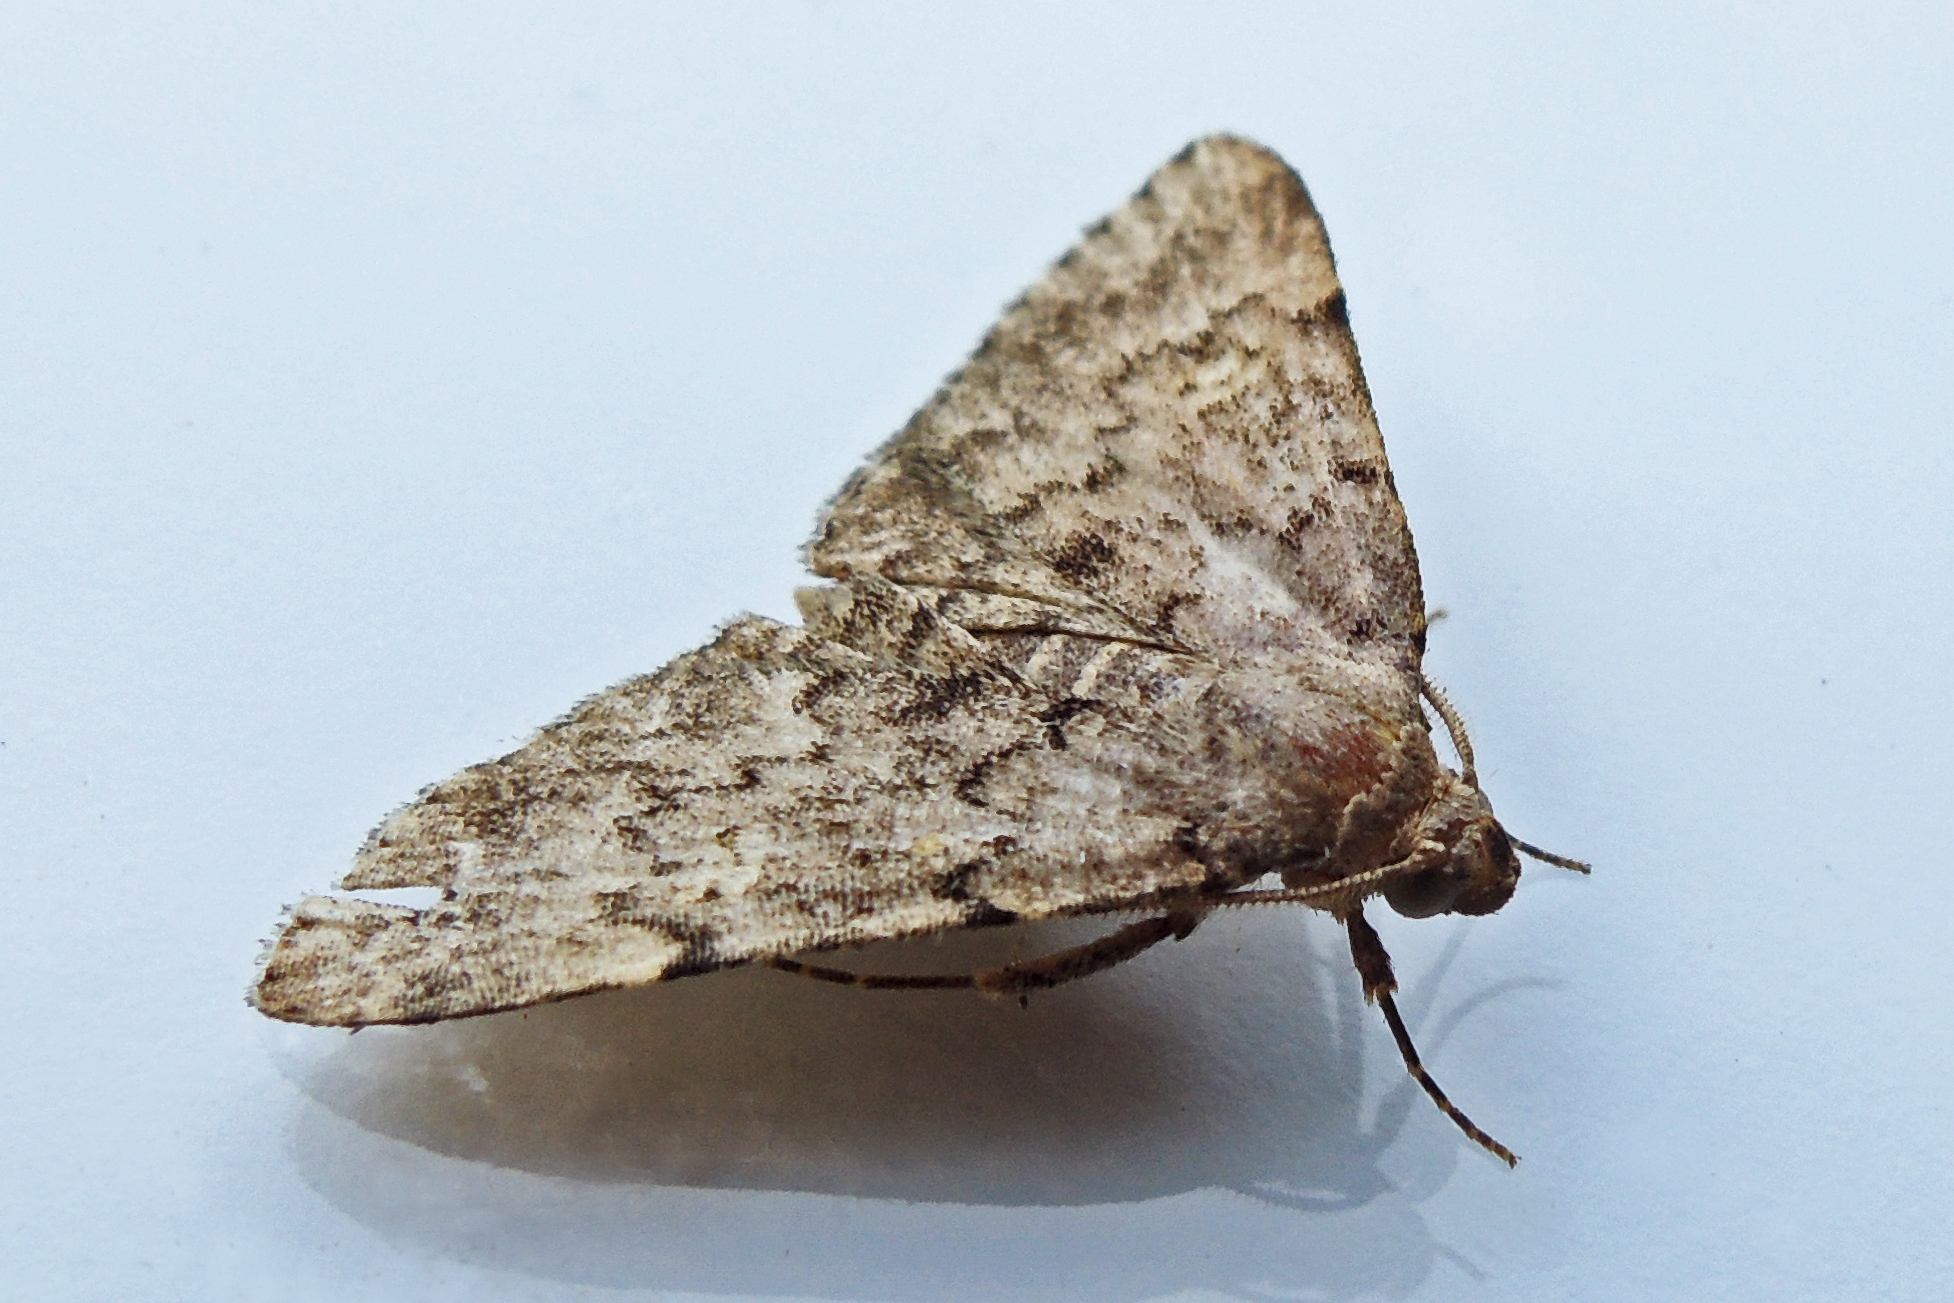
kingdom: Animalia
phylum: Arthropoda
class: Insecta
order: Lepidoptera
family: Erebidae
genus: Idia
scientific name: Idia aemula
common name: Common idia moth
